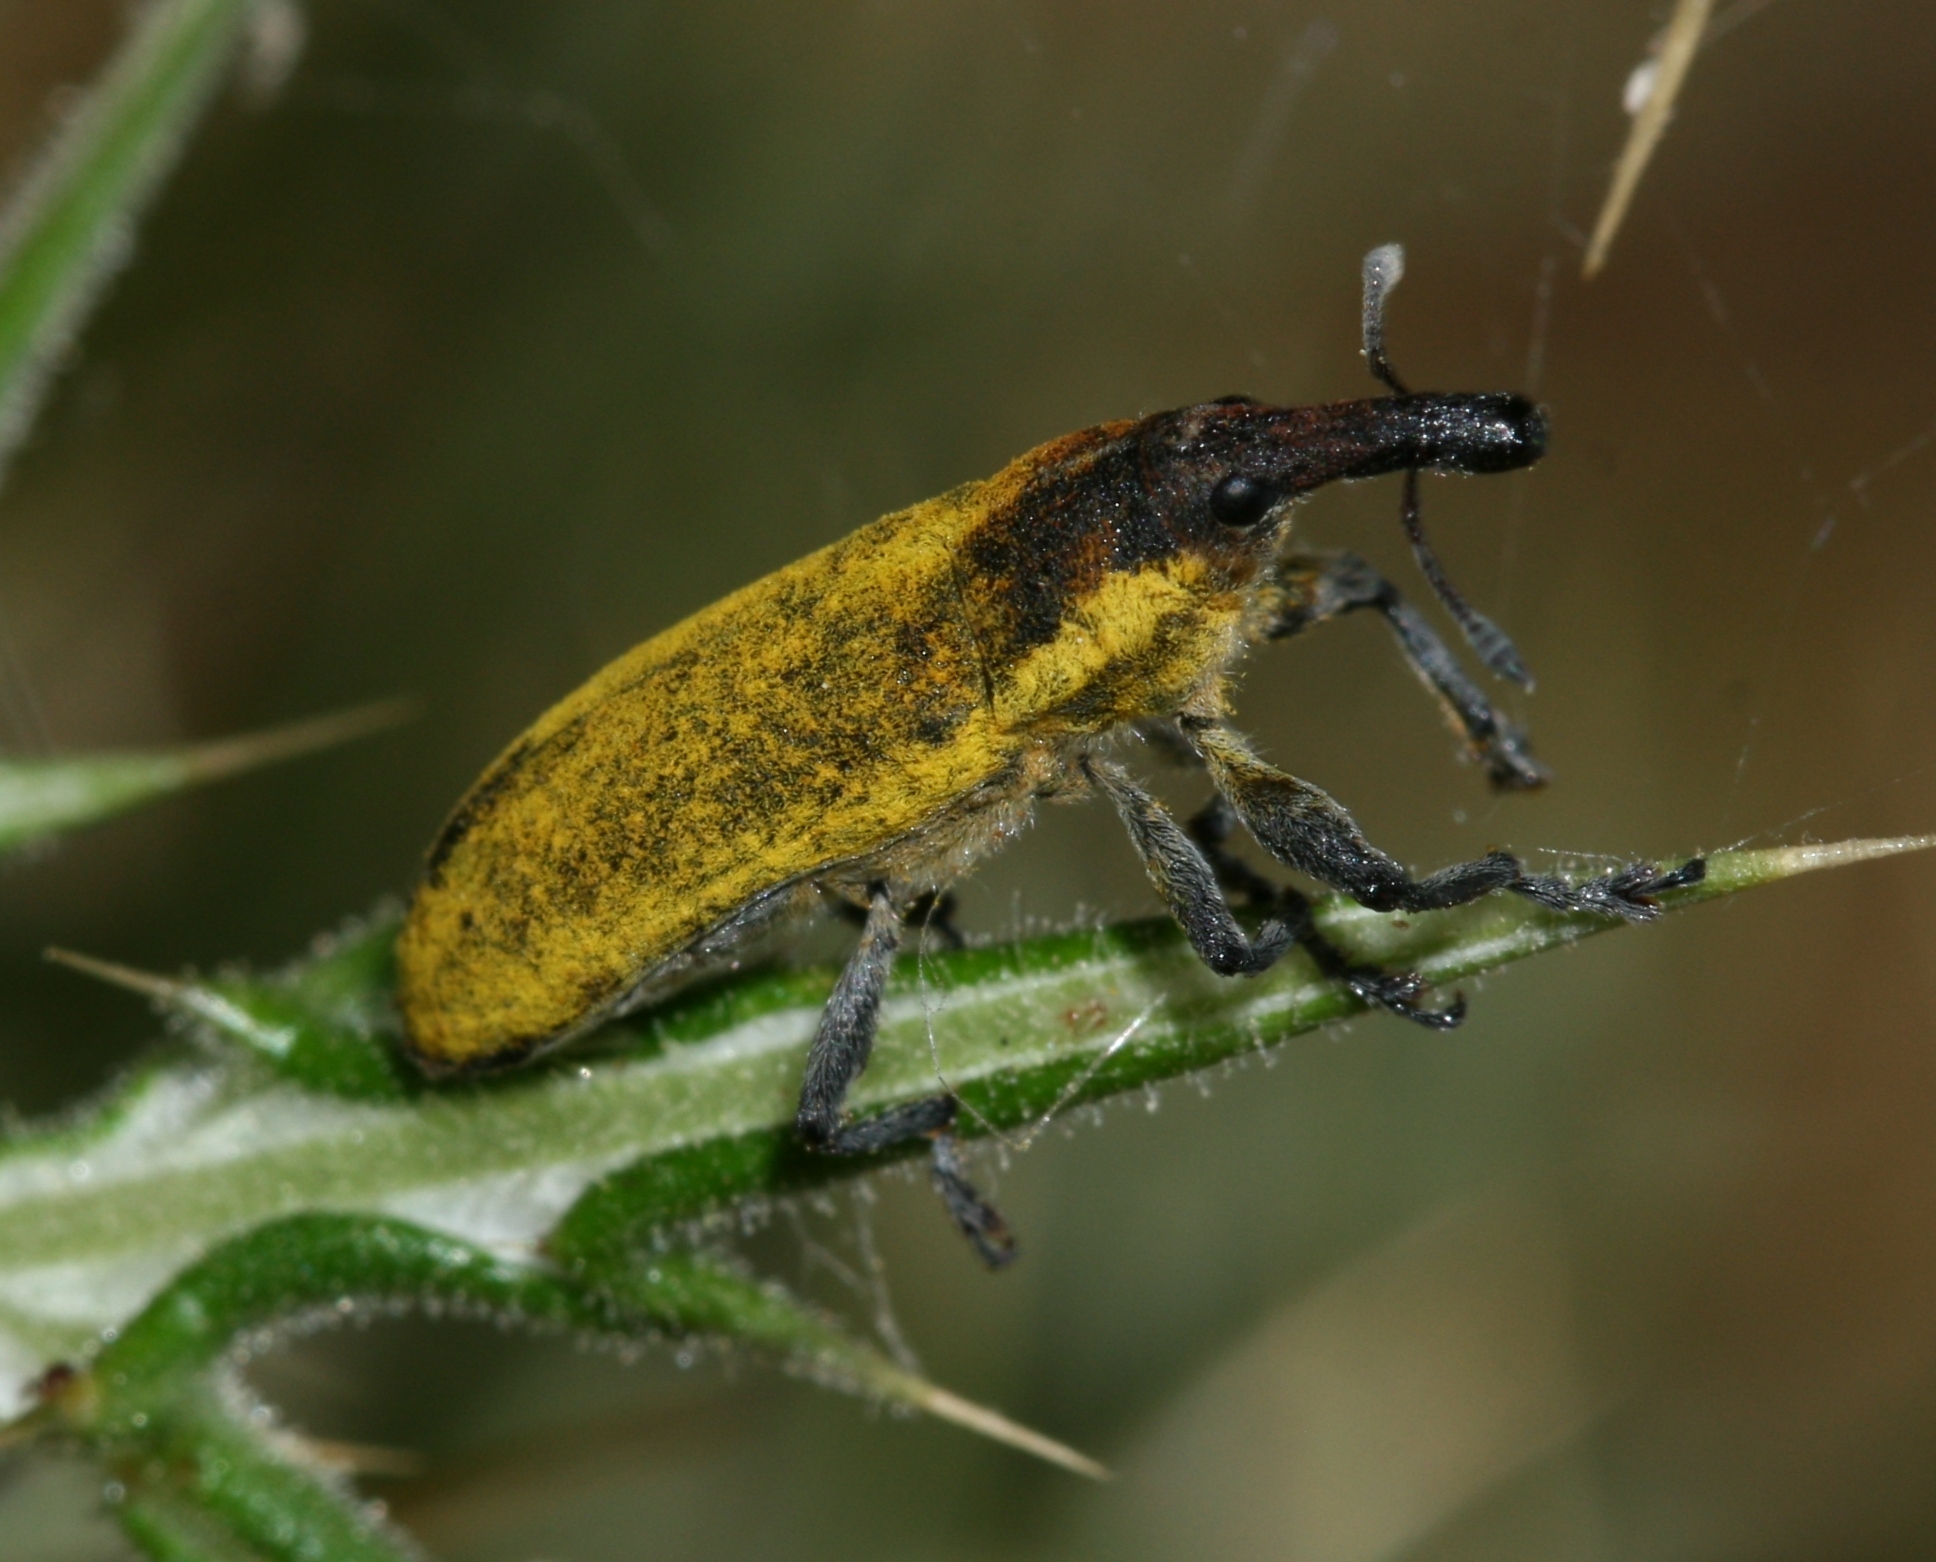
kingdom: Animalia
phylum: Arthropoda
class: Insecta
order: Coleoptera
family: Curculionidae
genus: Lixus
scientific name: Lixus scolopax
